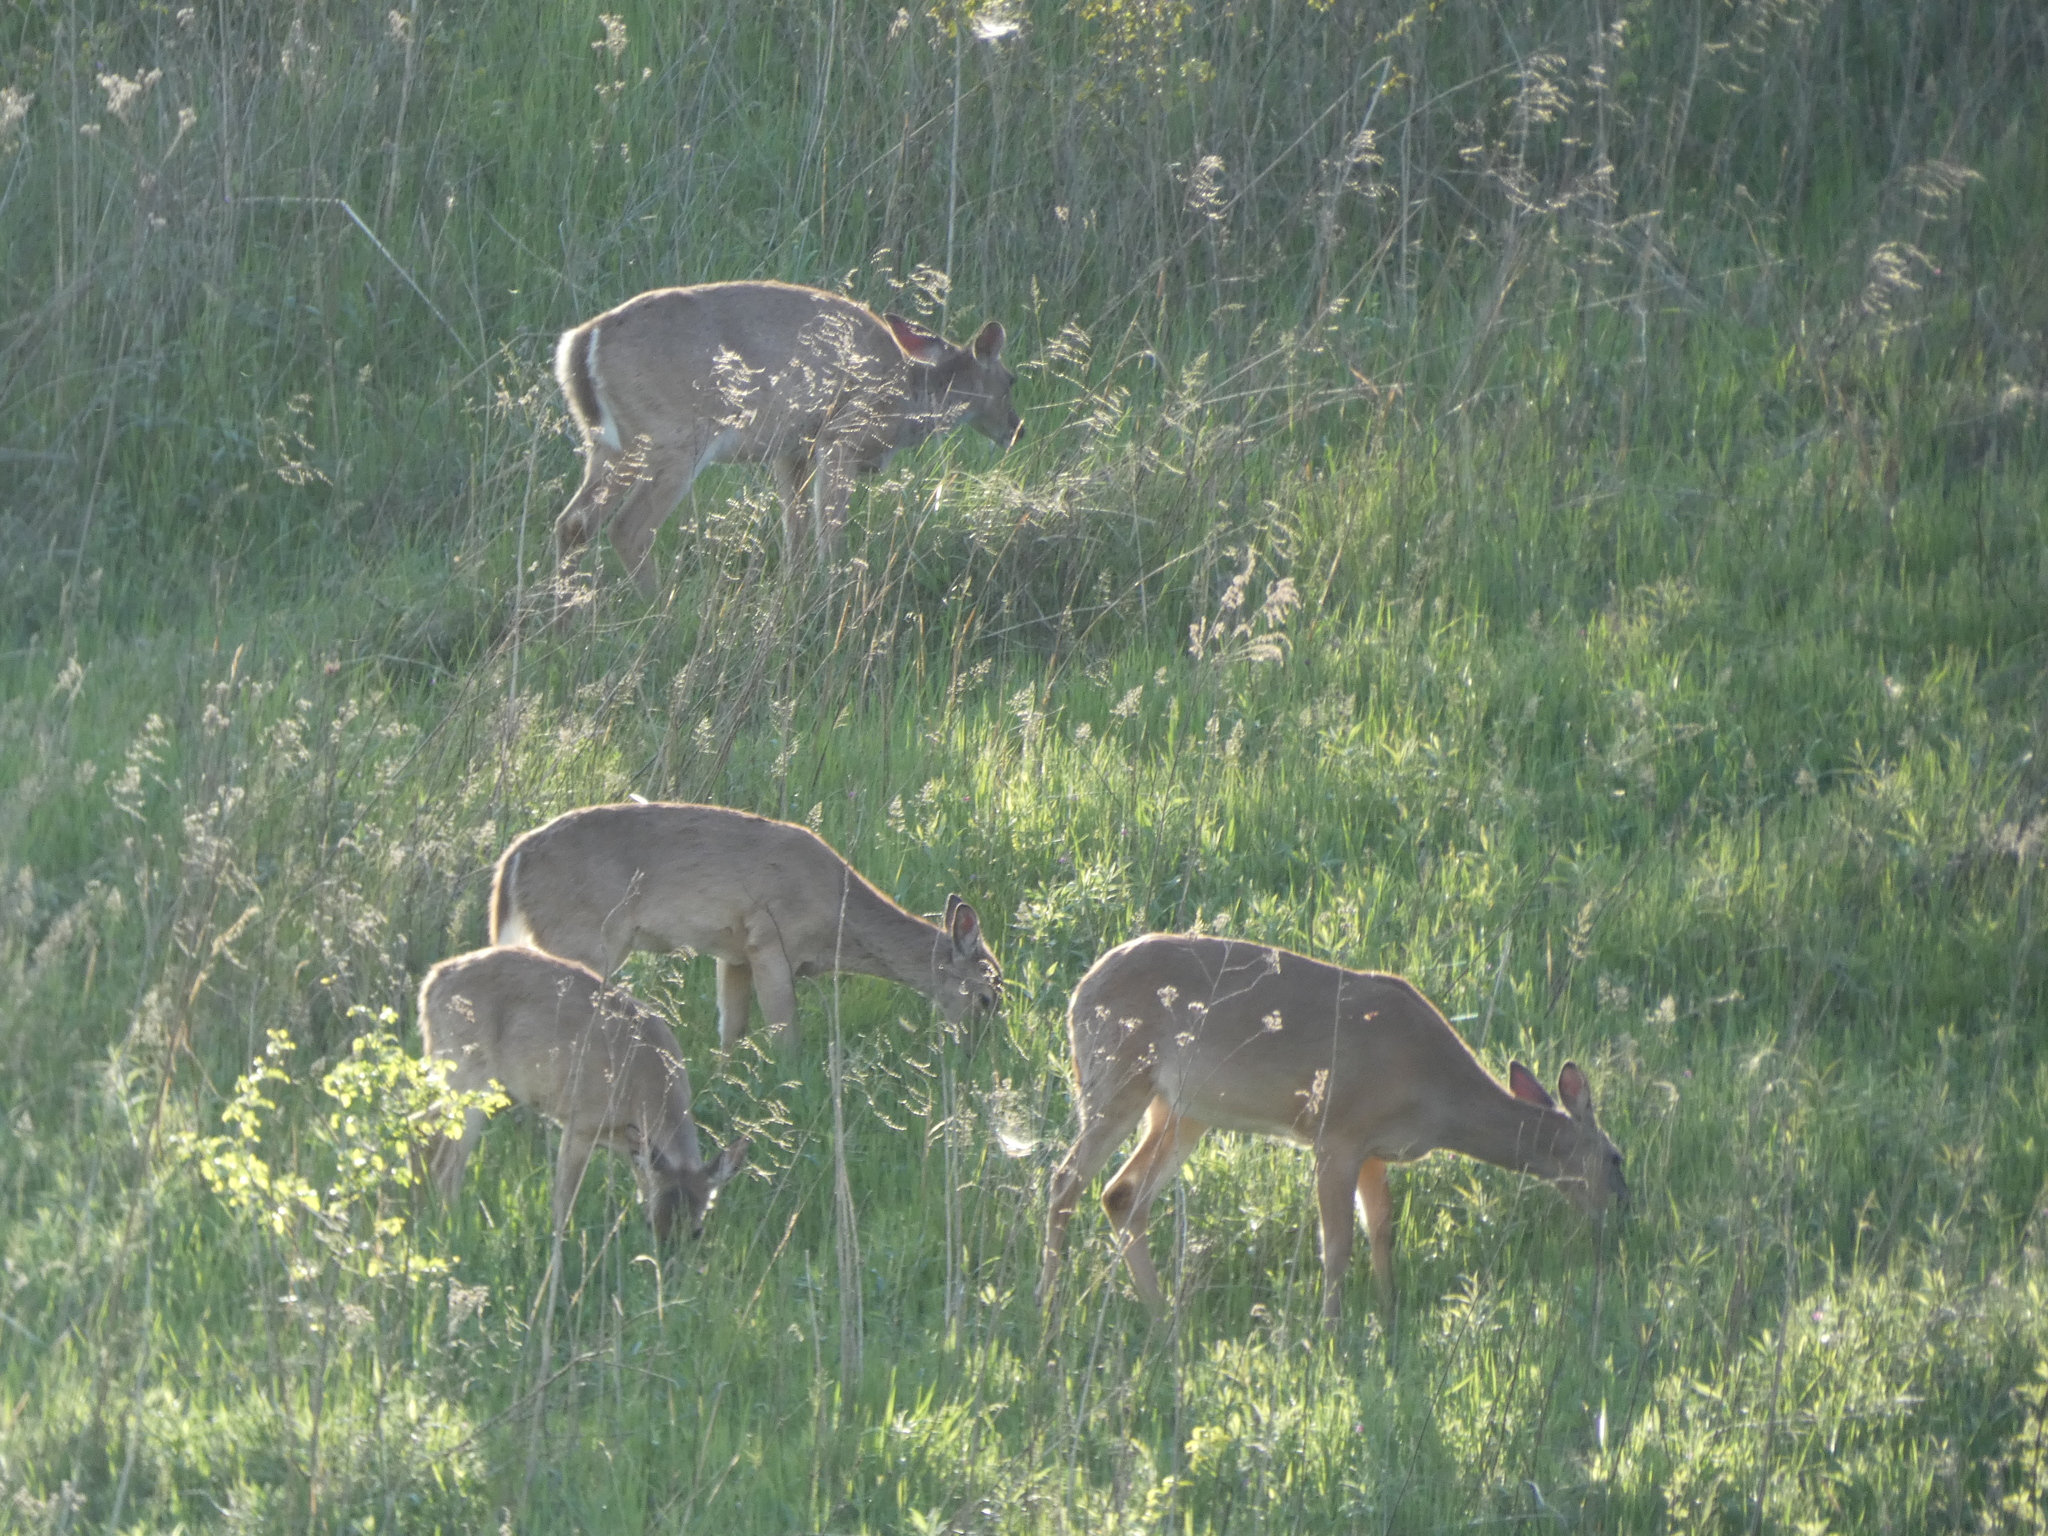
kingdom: Animalia
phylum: Chordata
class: Mammalia
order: Artiodactyla
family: Cervidae
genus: Odocoileus
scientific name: Odocoileus virginianus
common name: White-tailed deer
